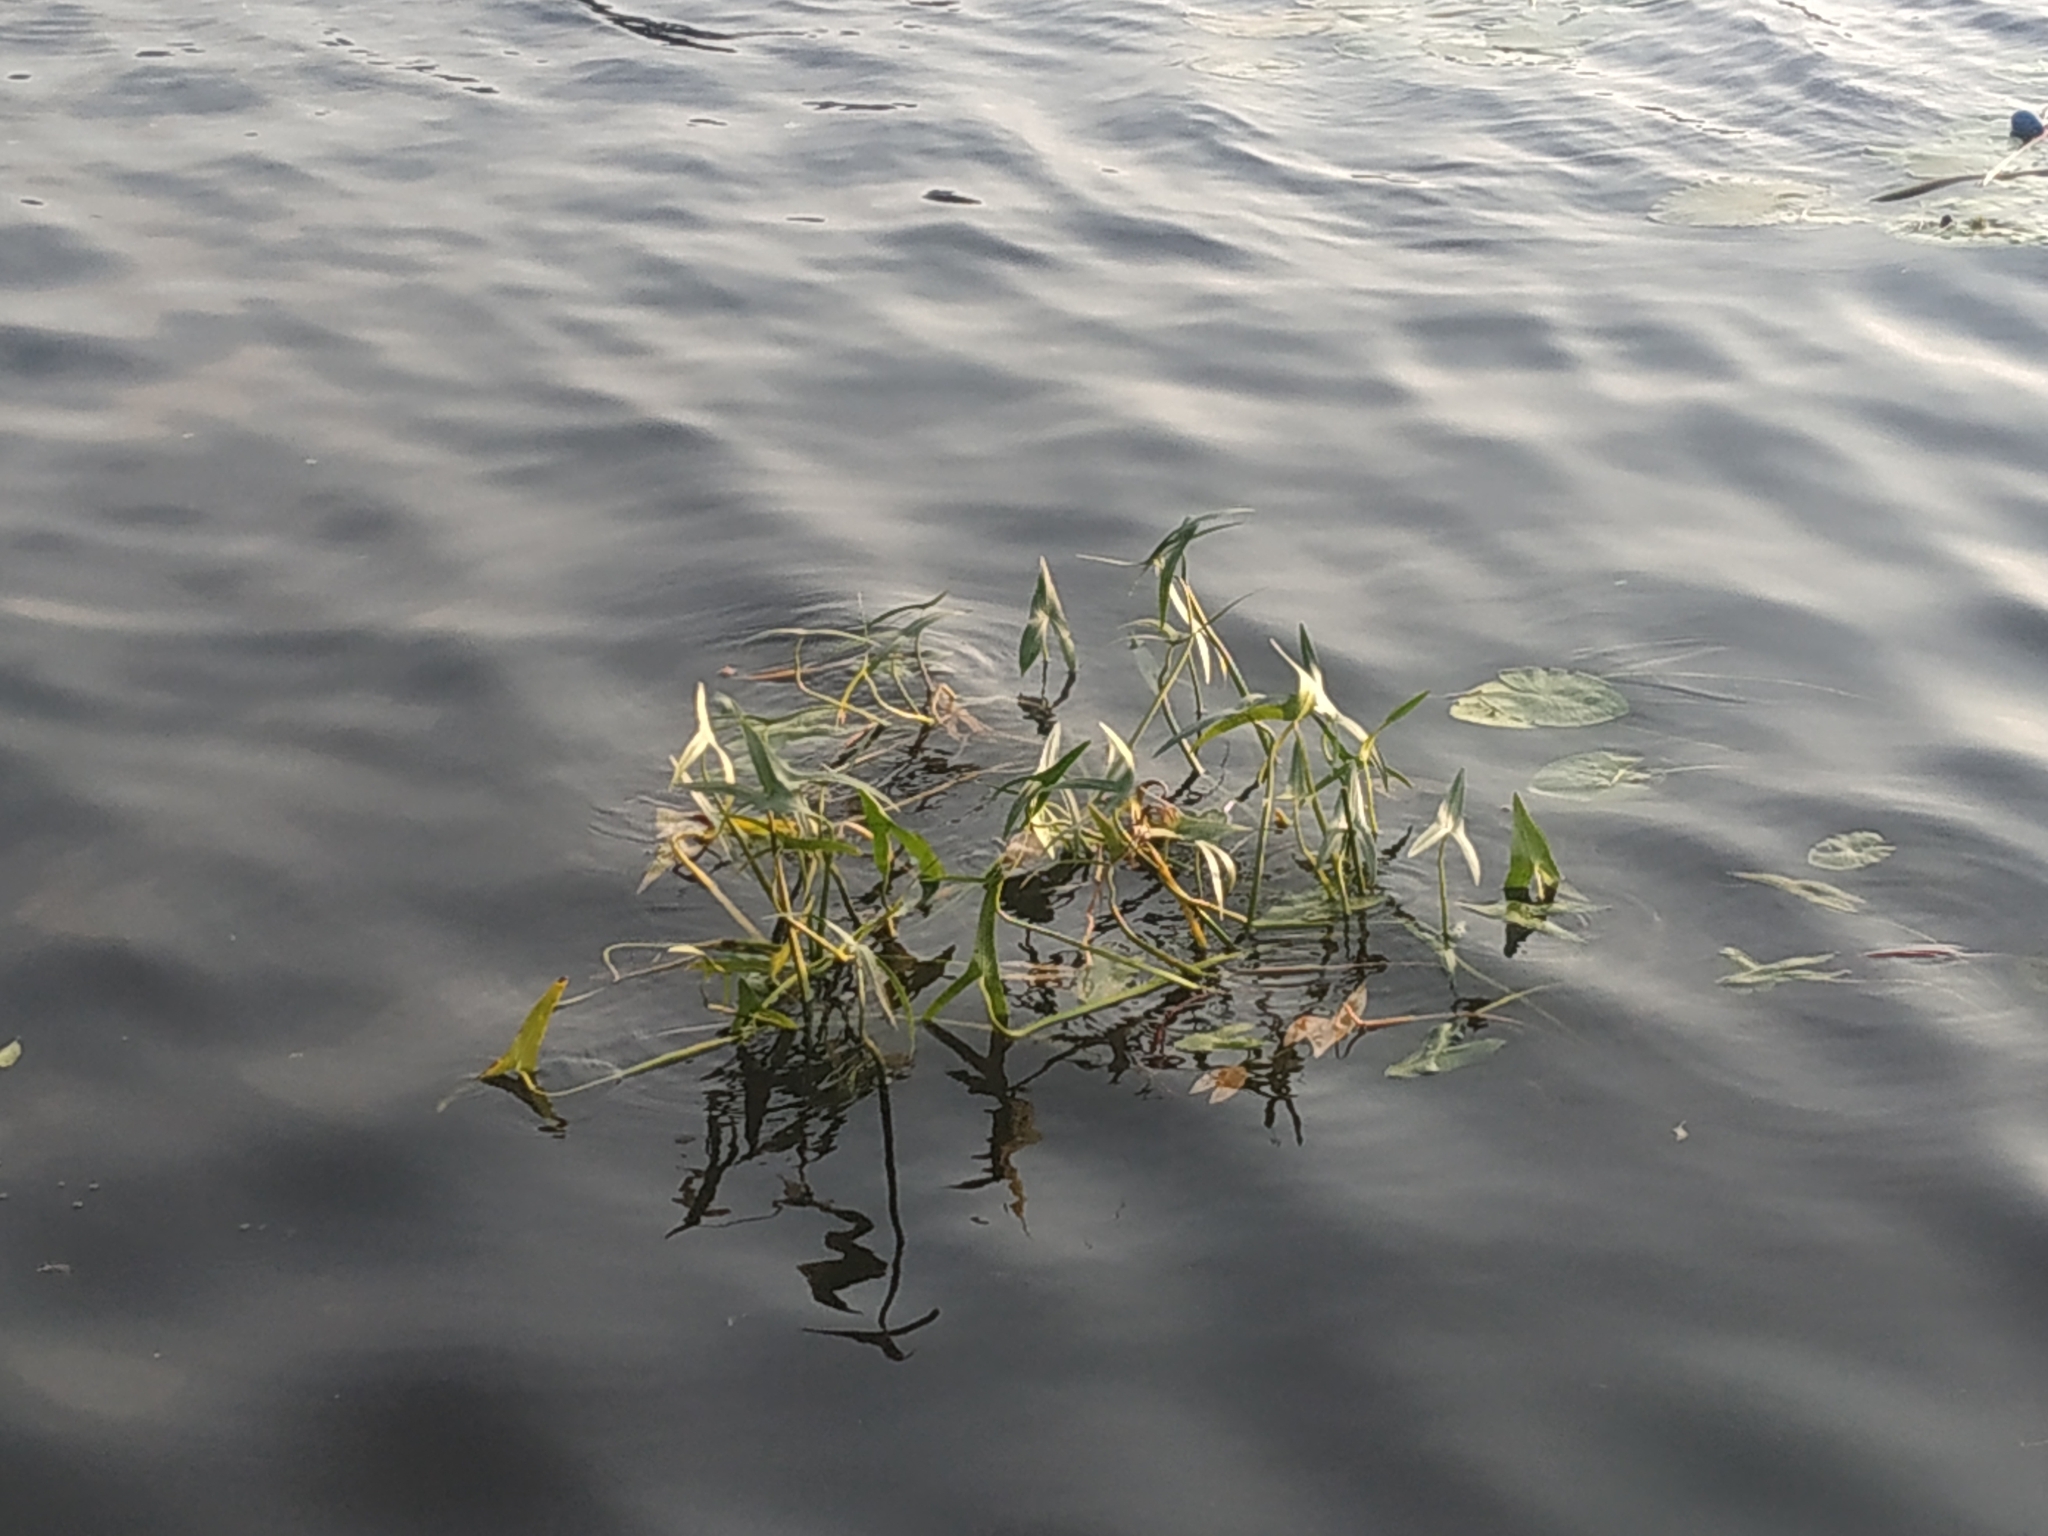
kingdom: Plantae
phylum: Tracheophyta
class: Liliopsida
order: Alismatales
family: Alismataceae
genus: Sagittaria
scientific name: Sagittaria sagittifolia
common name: Arrowhead
